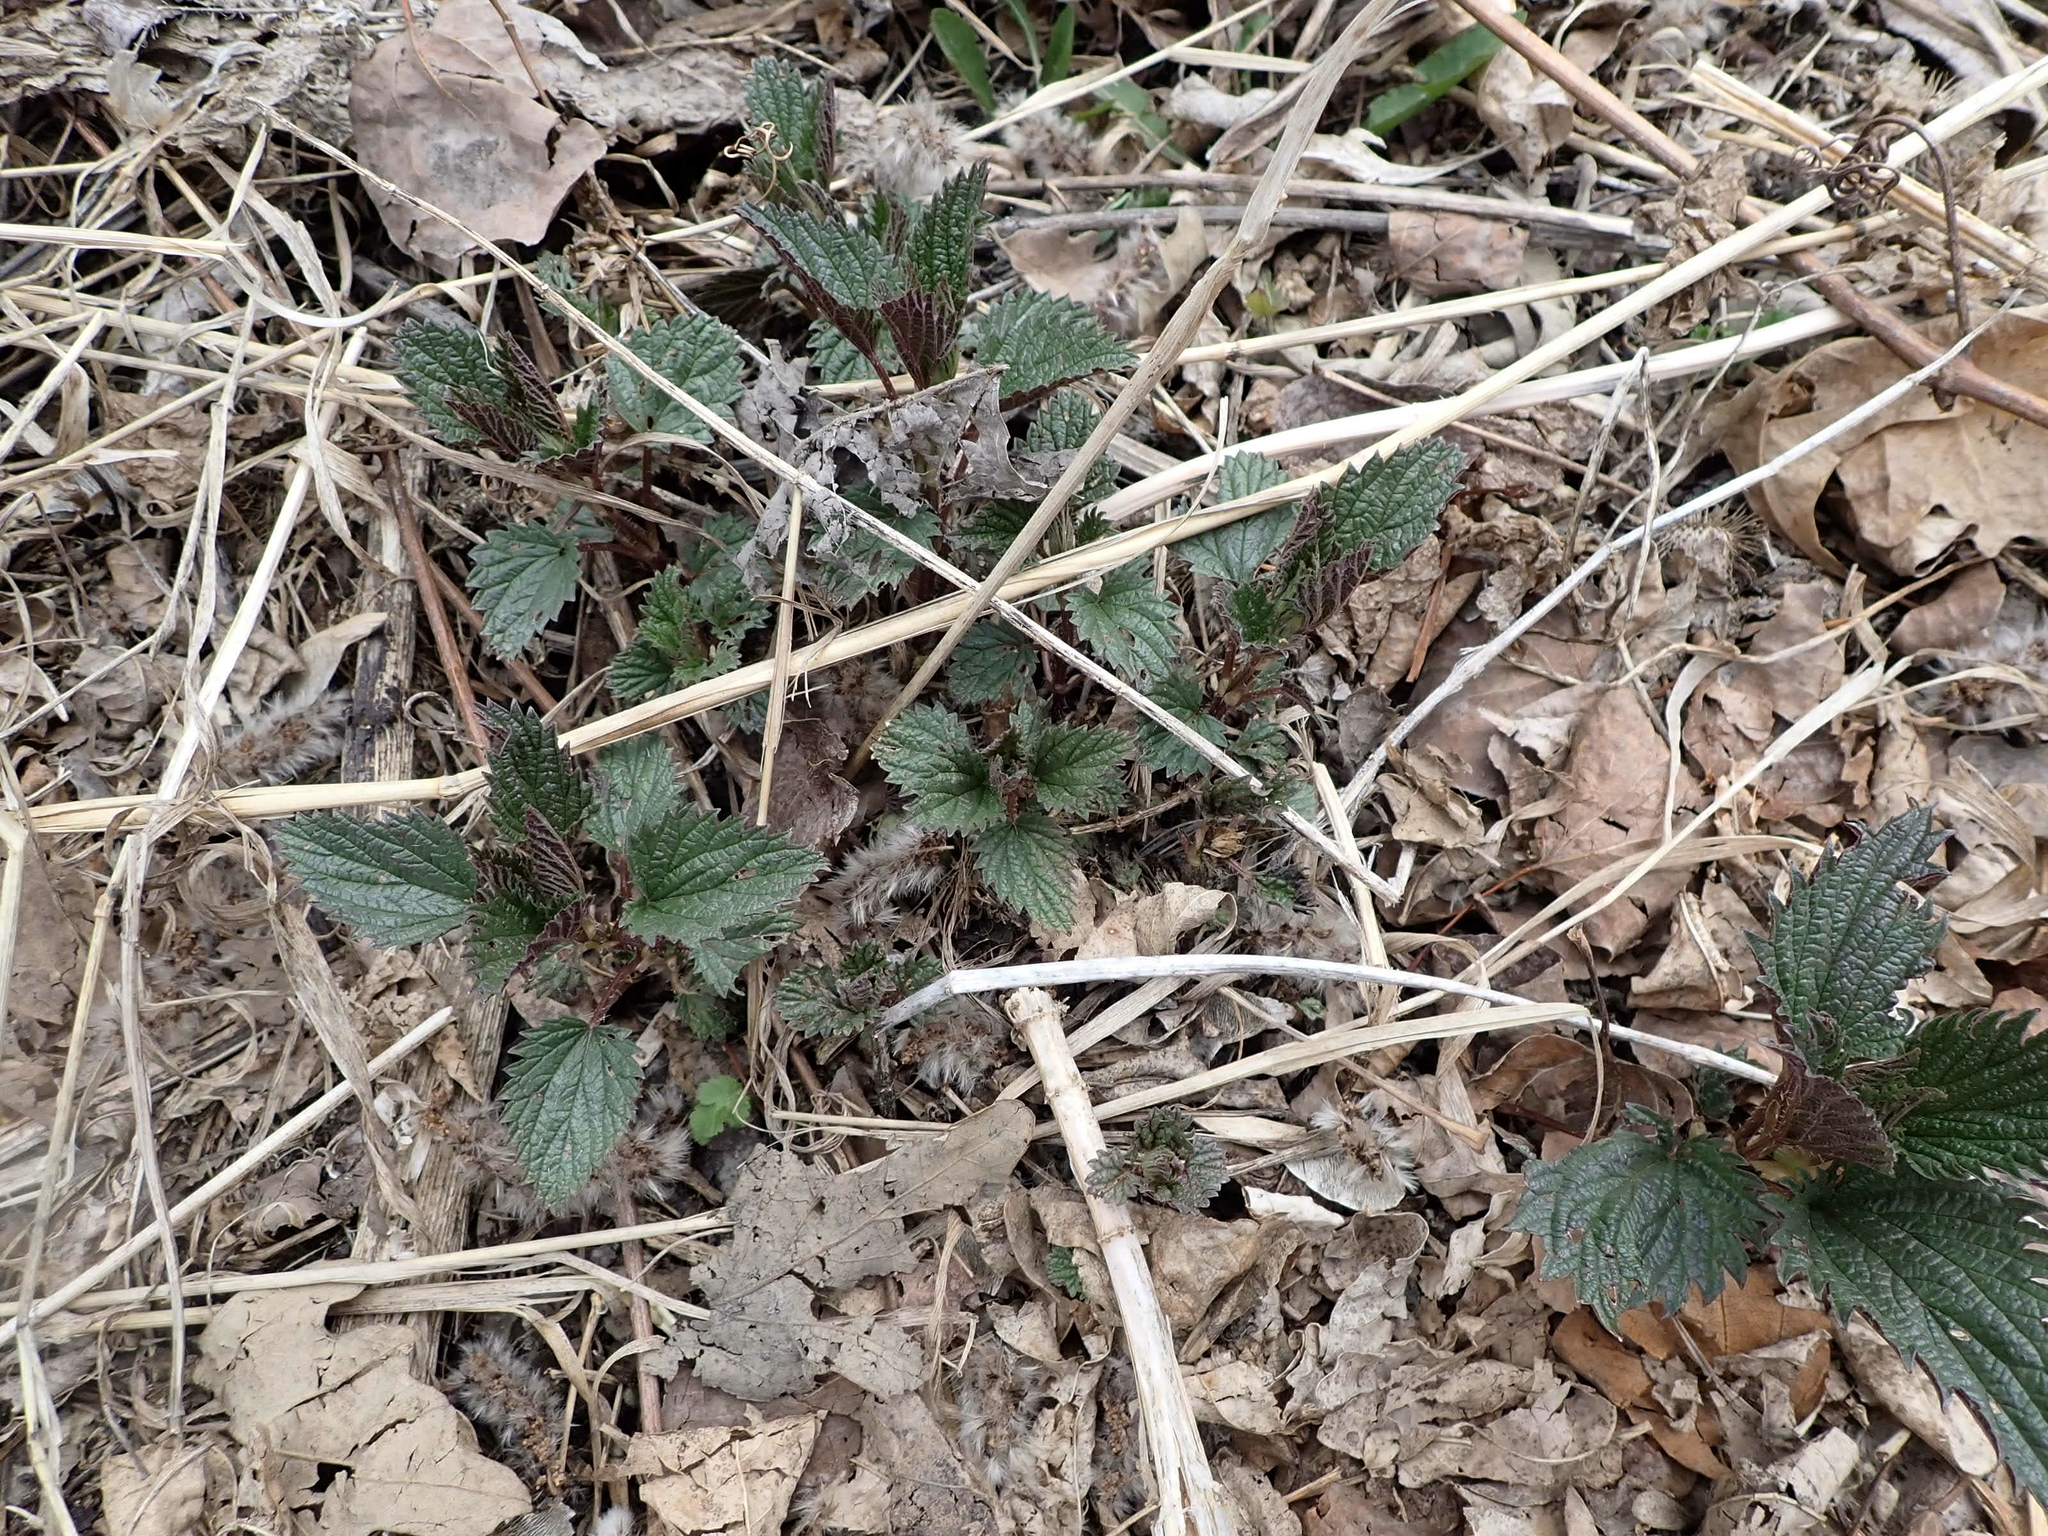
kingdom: Plantae
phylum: Tracheophyta
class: Magnoliopsida
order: Rosales
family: Urticaceae
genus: Urtica
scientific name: Urtica gracilis
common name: Slender stinging nettle
